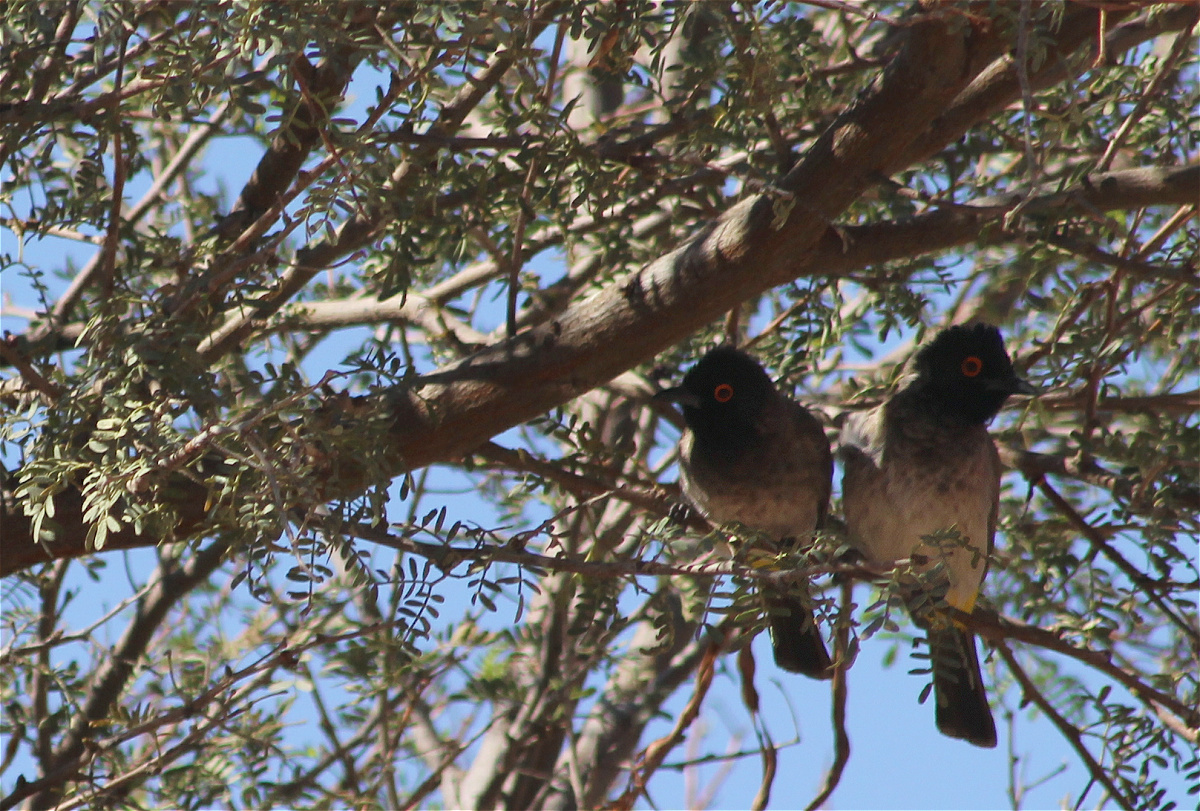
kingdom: Animalia
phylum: Chordata
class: Aves
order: Passeriformes
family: Pycnonotidae
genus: Pycnonotus
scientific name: Pycnonotus nigricans
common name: African red-eyed bulbul
